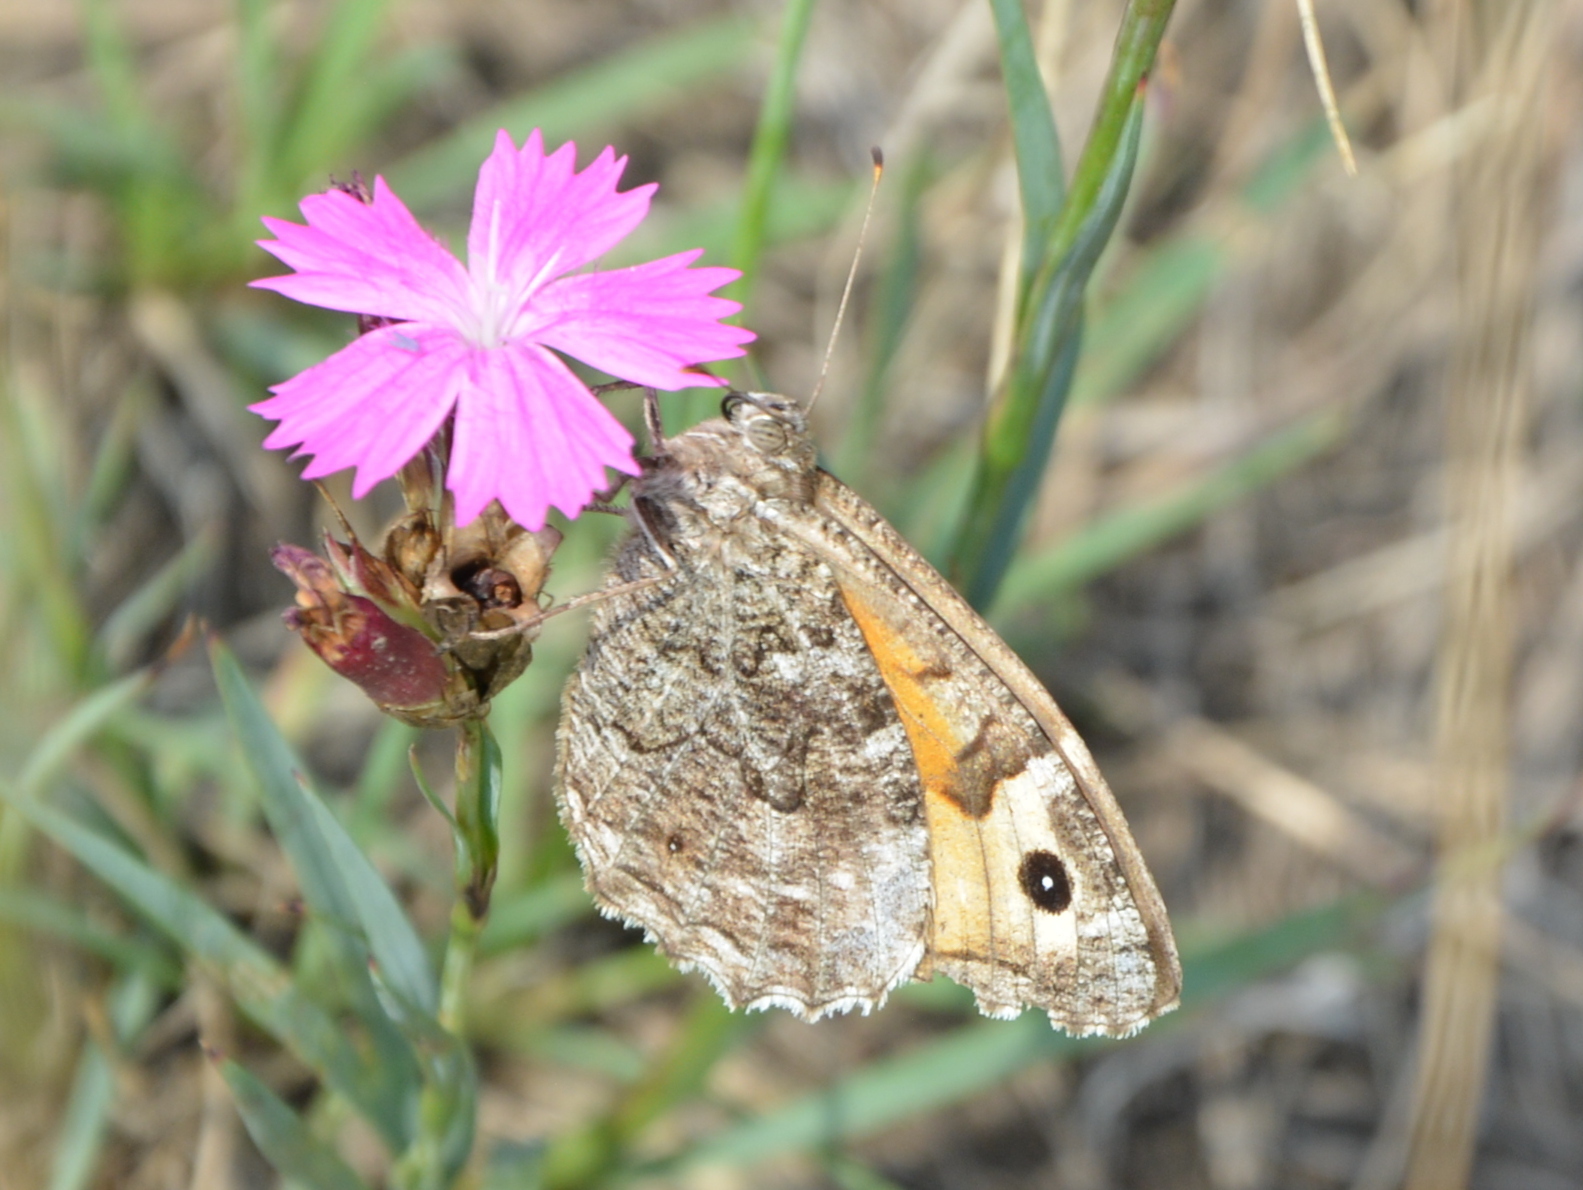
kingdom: Animalia
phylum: Arthropoda
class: Insecta
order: Lepidoptera
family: Nymphalidae
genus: Hipparchia
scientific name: Hipparchia semele
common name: Grayling
